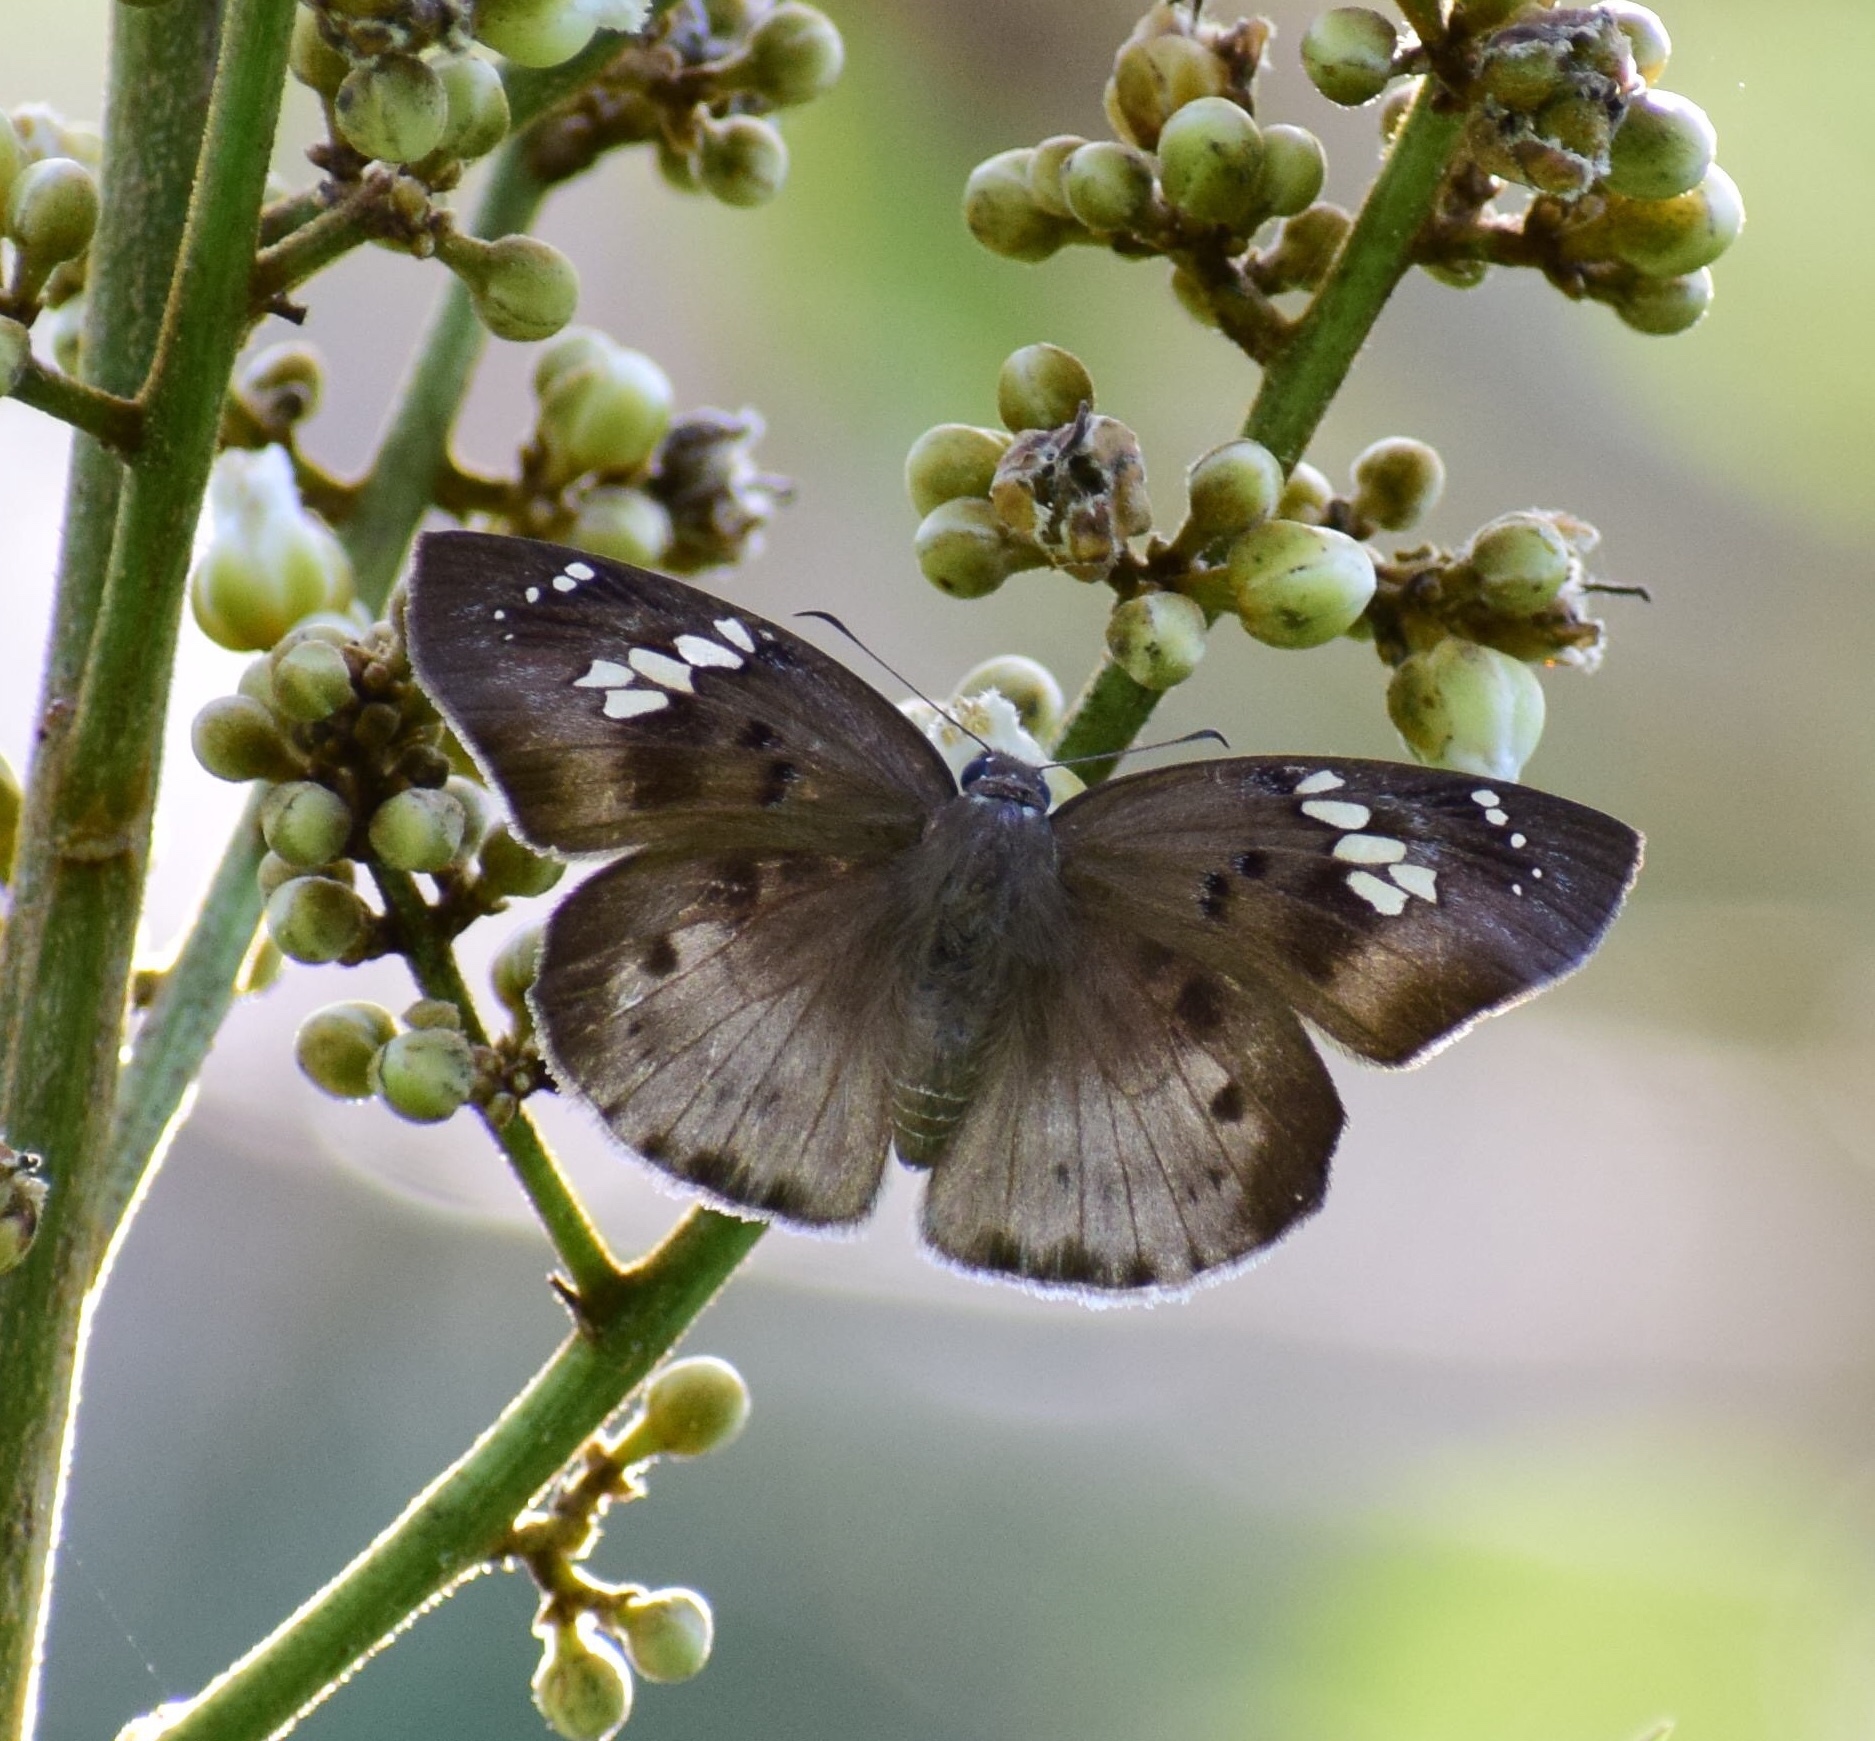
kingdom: Animalia
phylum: Arthropoda
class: Insecta
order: Lepidoptera
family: Hesperiidae
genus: Tagiades
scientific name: Tagiades flesus
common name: Clouded flat
